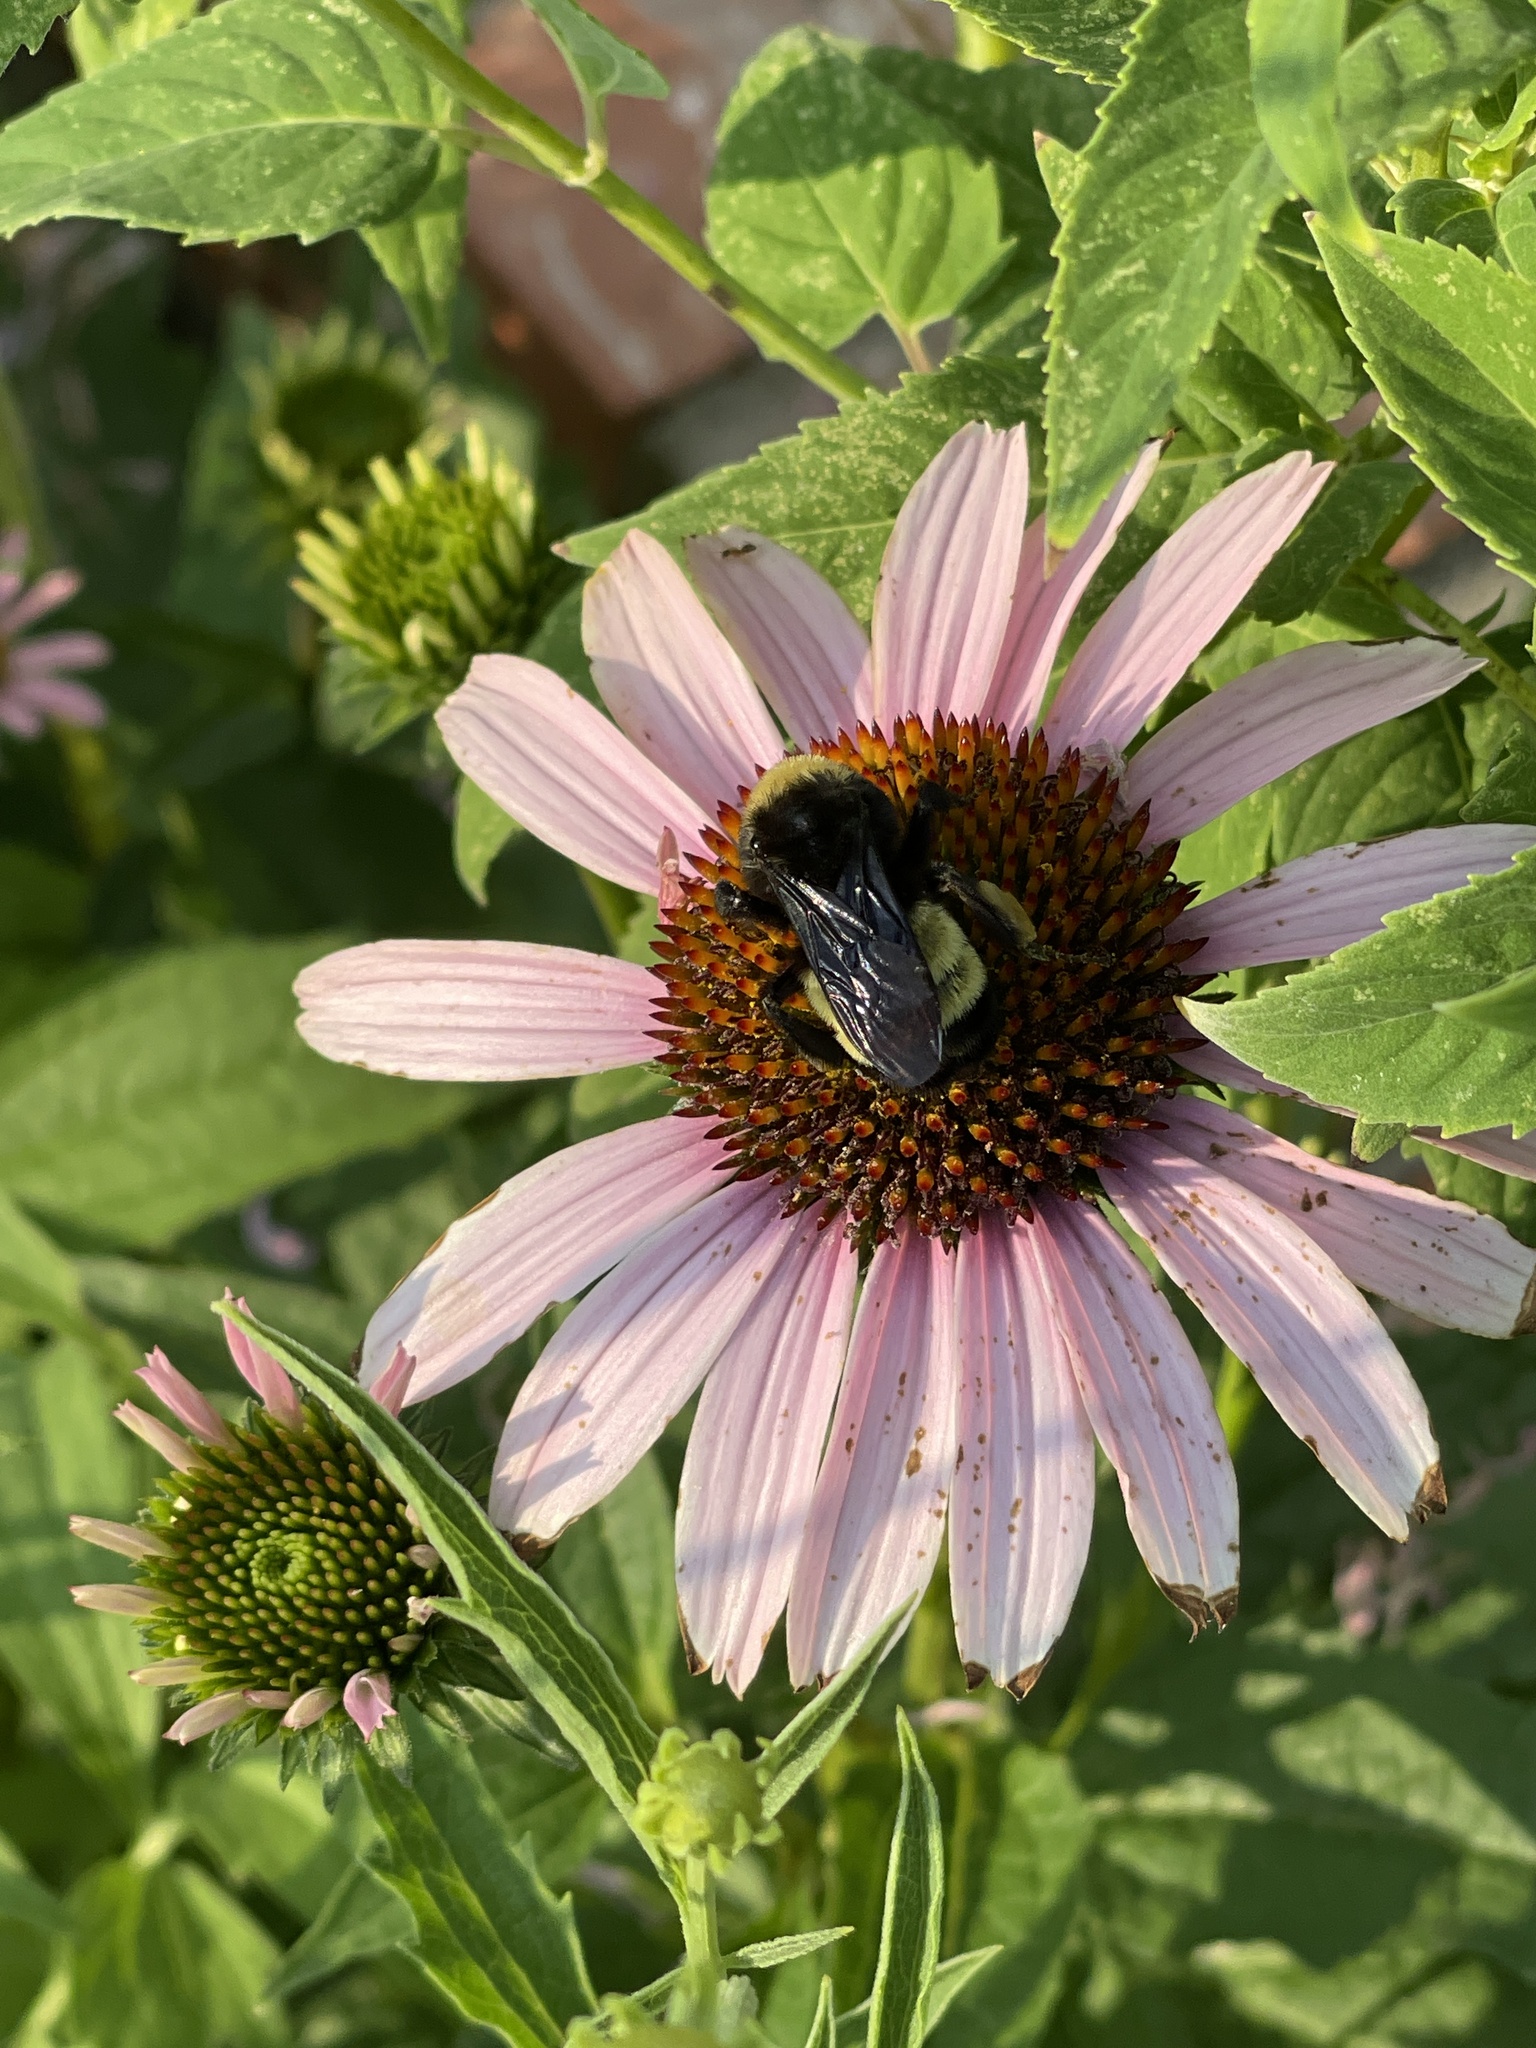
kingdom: Animalia
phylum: Arthropoda
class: Insecta
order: Hymenoptera
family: Apidae
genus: Bombus
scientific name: Bombus pensylvanicus
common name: Bumble bee
